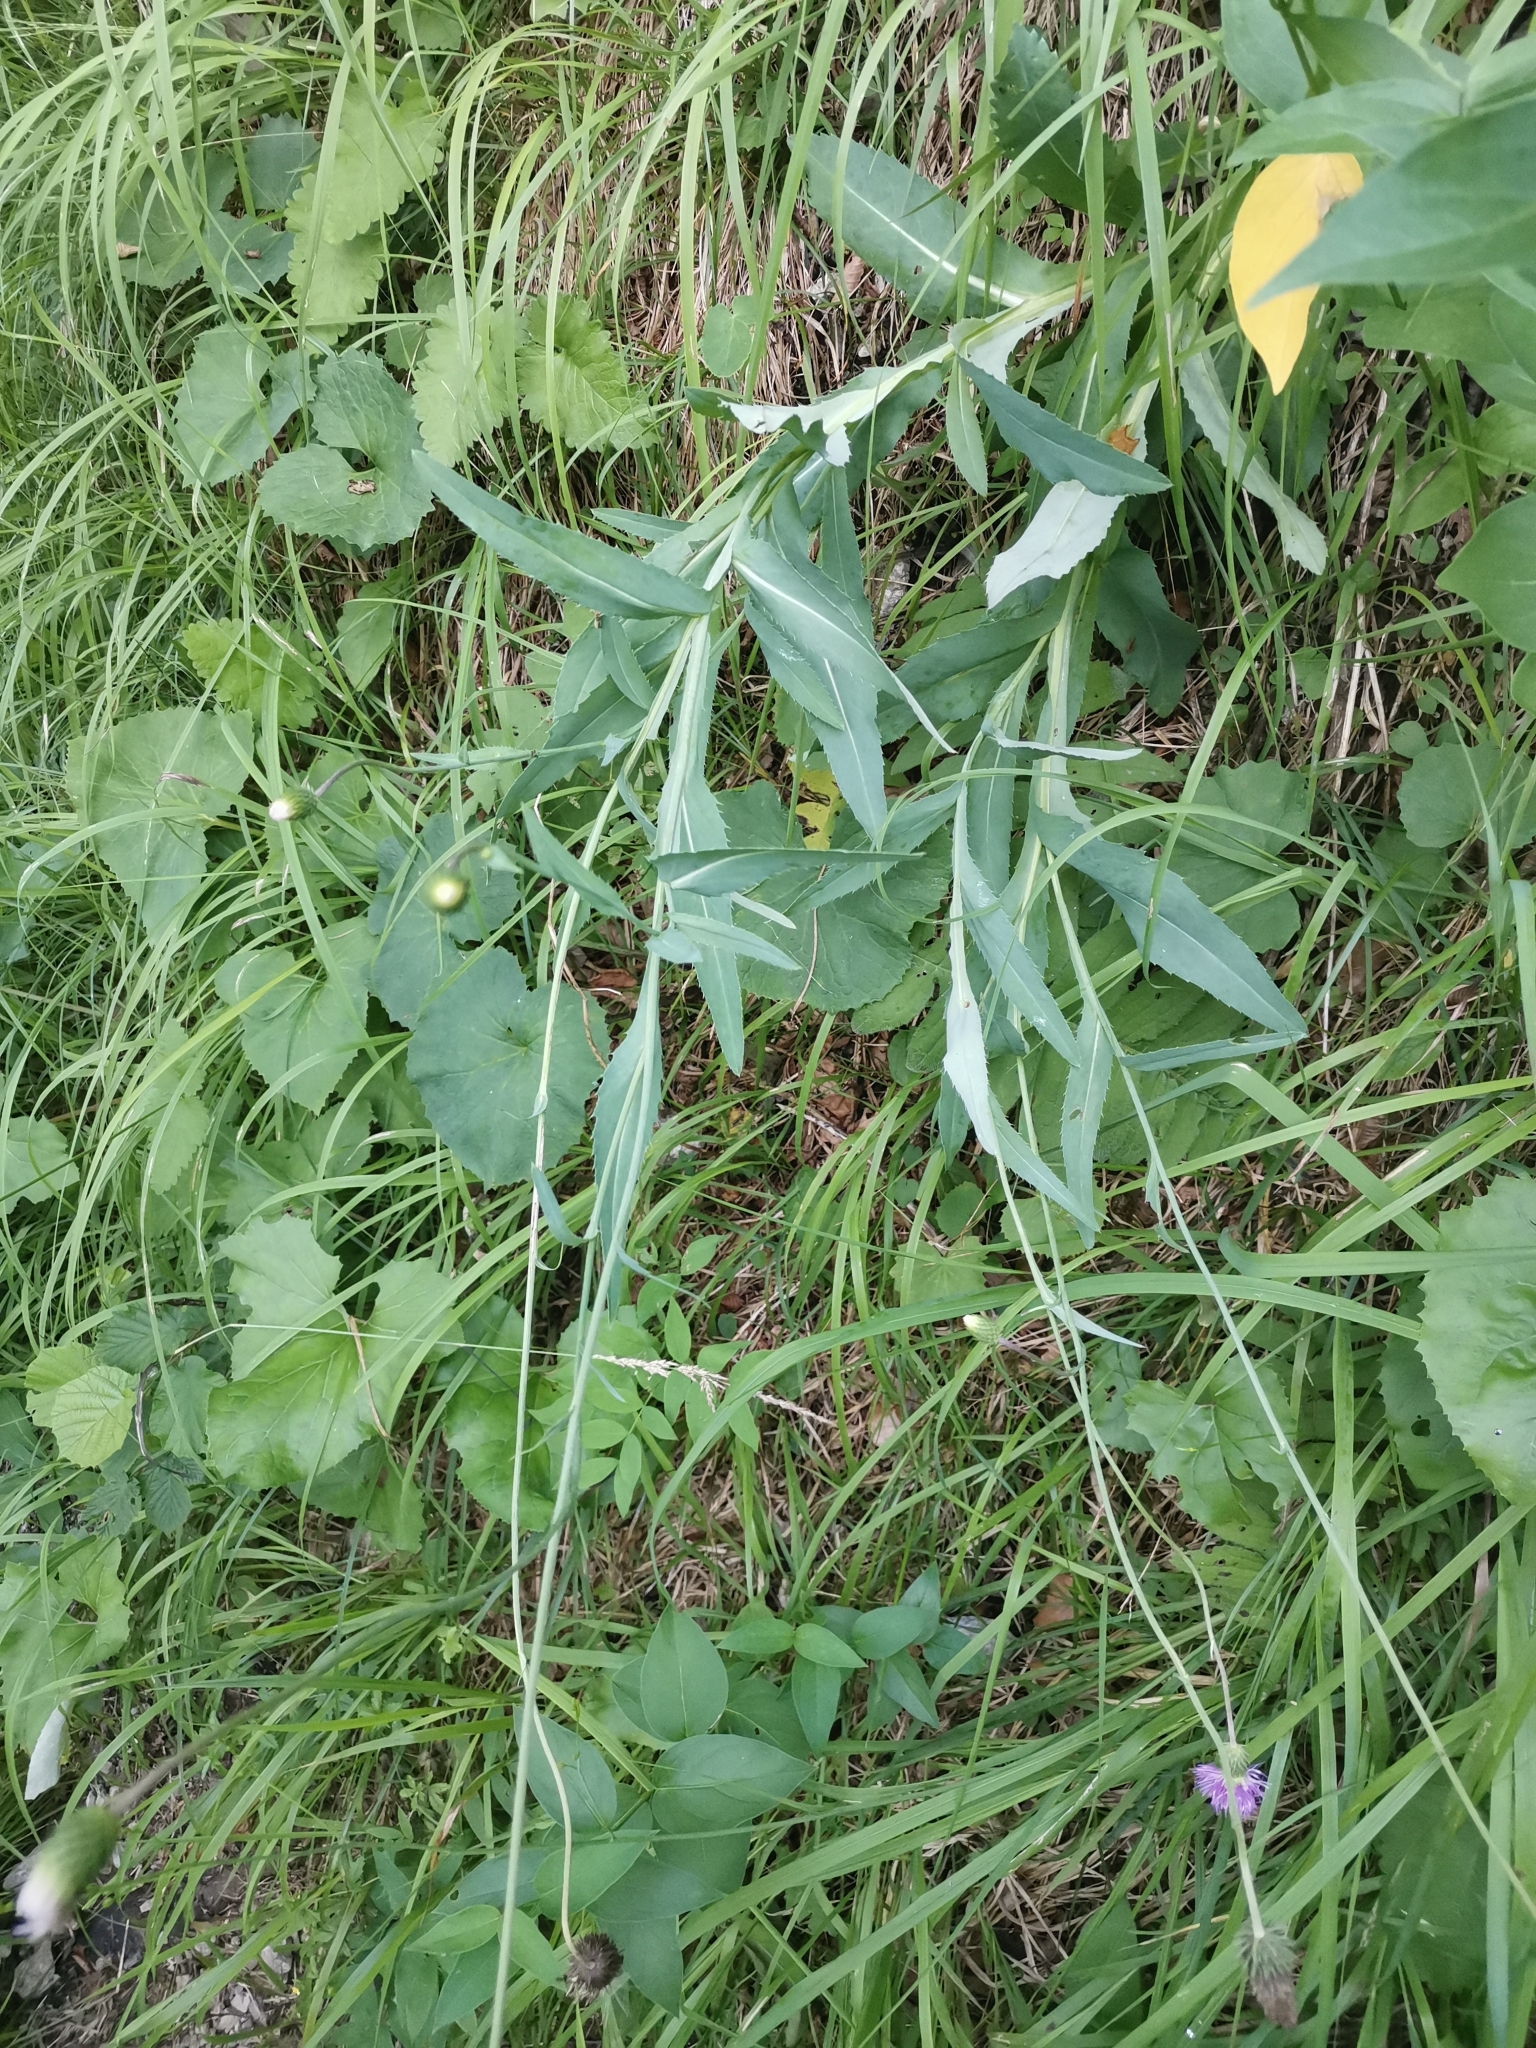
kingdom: Plantae
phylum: Tracheophyta
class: Magnoliopsida
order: Asterales
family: Asteraceae
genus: Carduus
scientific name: Carduus defloratus
